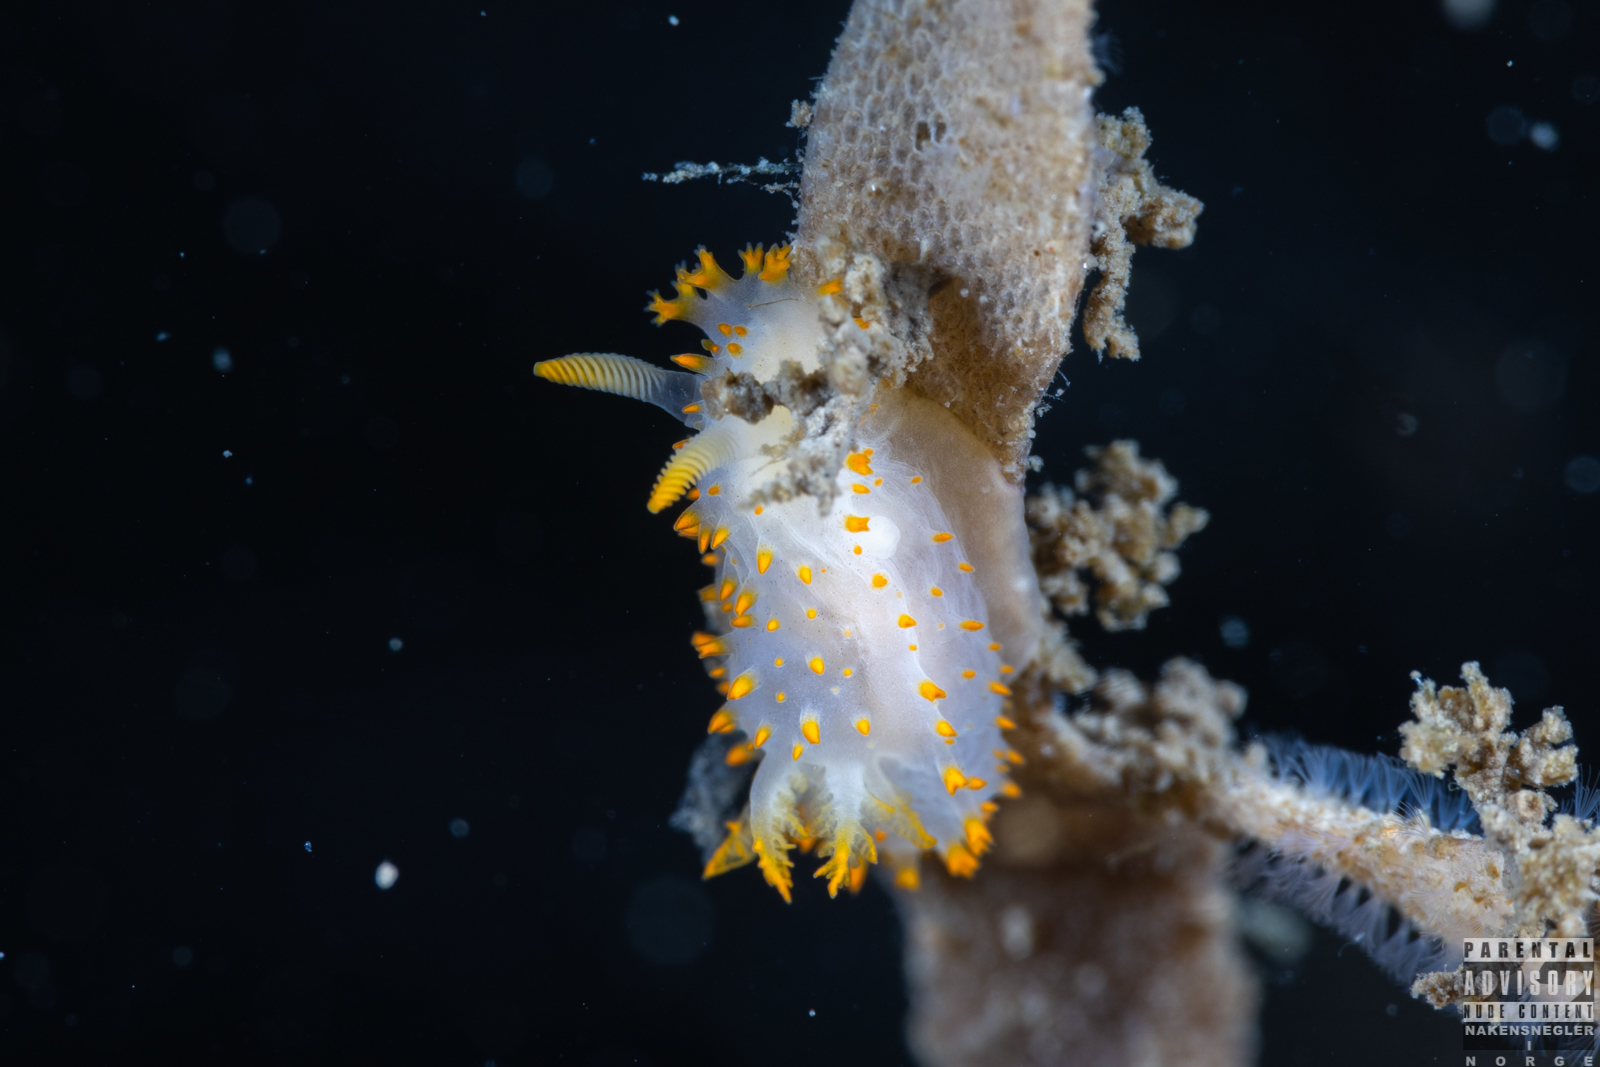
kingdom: Animalia
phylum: Mollusca
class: Gastropoda
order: Nudibranchia
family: Polyceridae
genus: Crimora
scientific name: Crimora papillata
